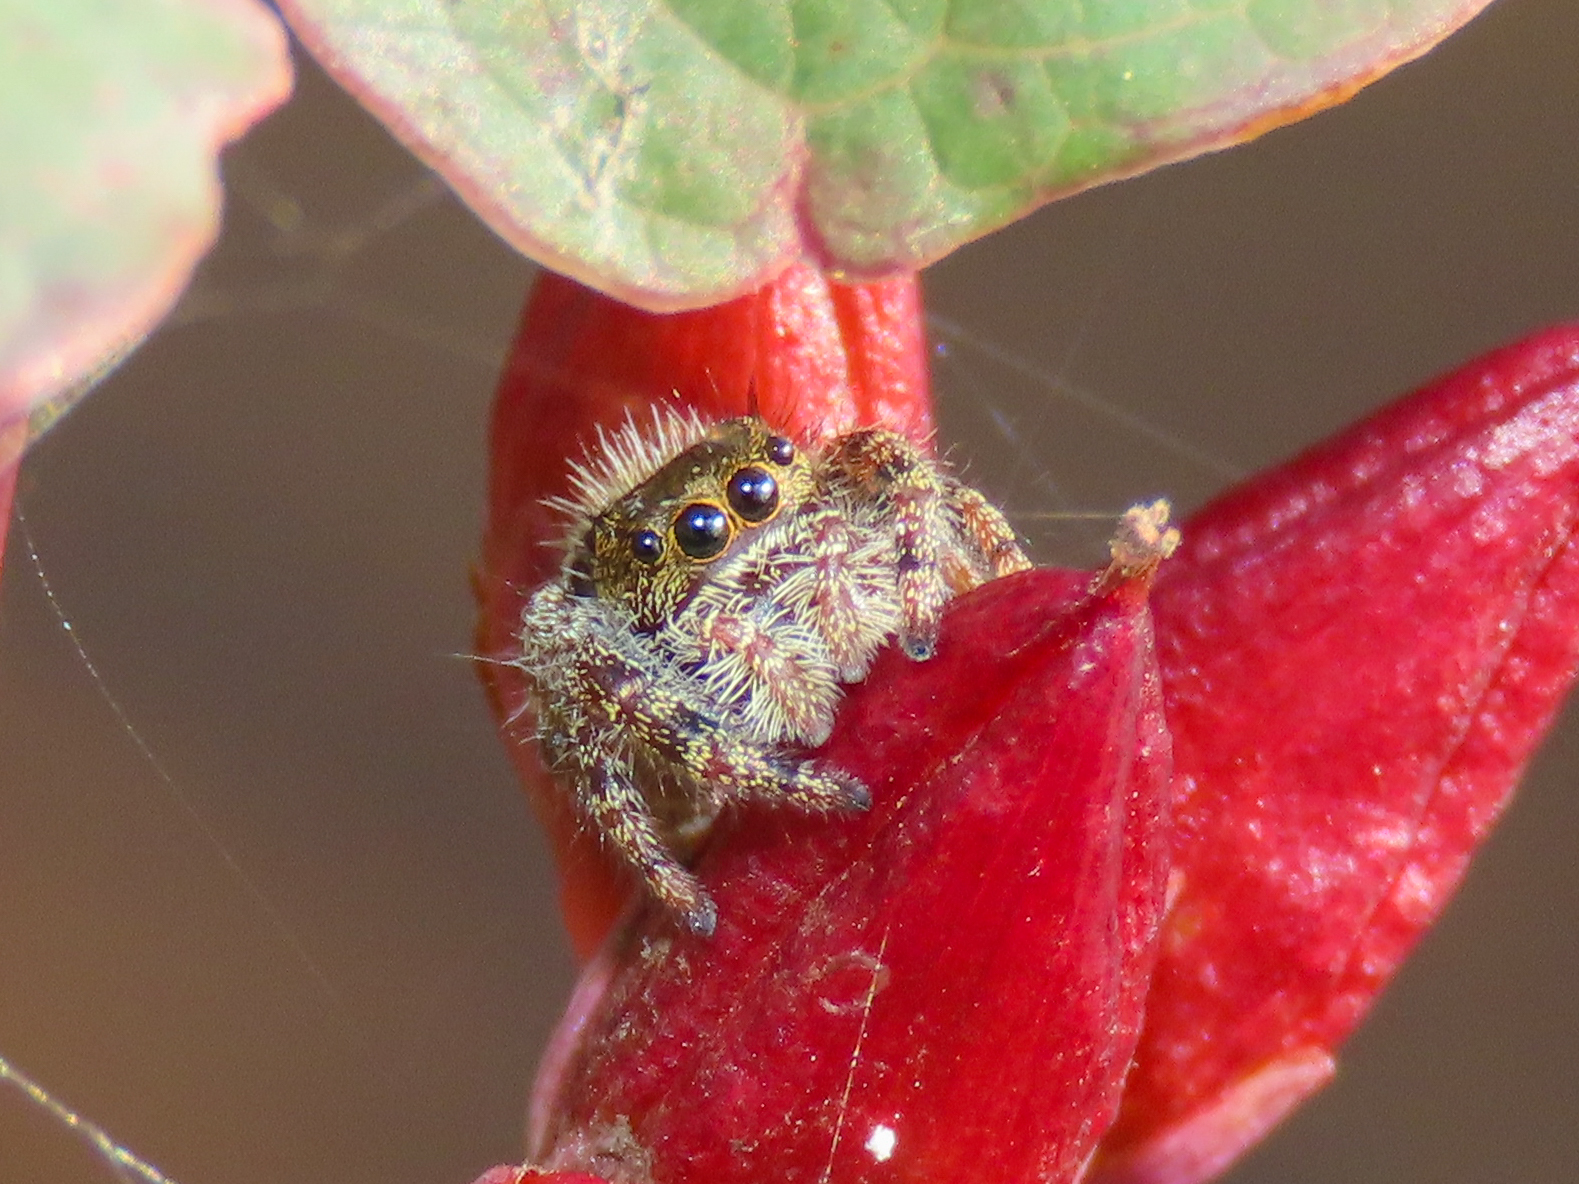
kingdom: Animalia
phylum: Arthropoda
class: Arachnida
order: Araneae
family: Salticidae
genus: Phidippus
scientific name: Phidippus audax
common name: Bold jumper
